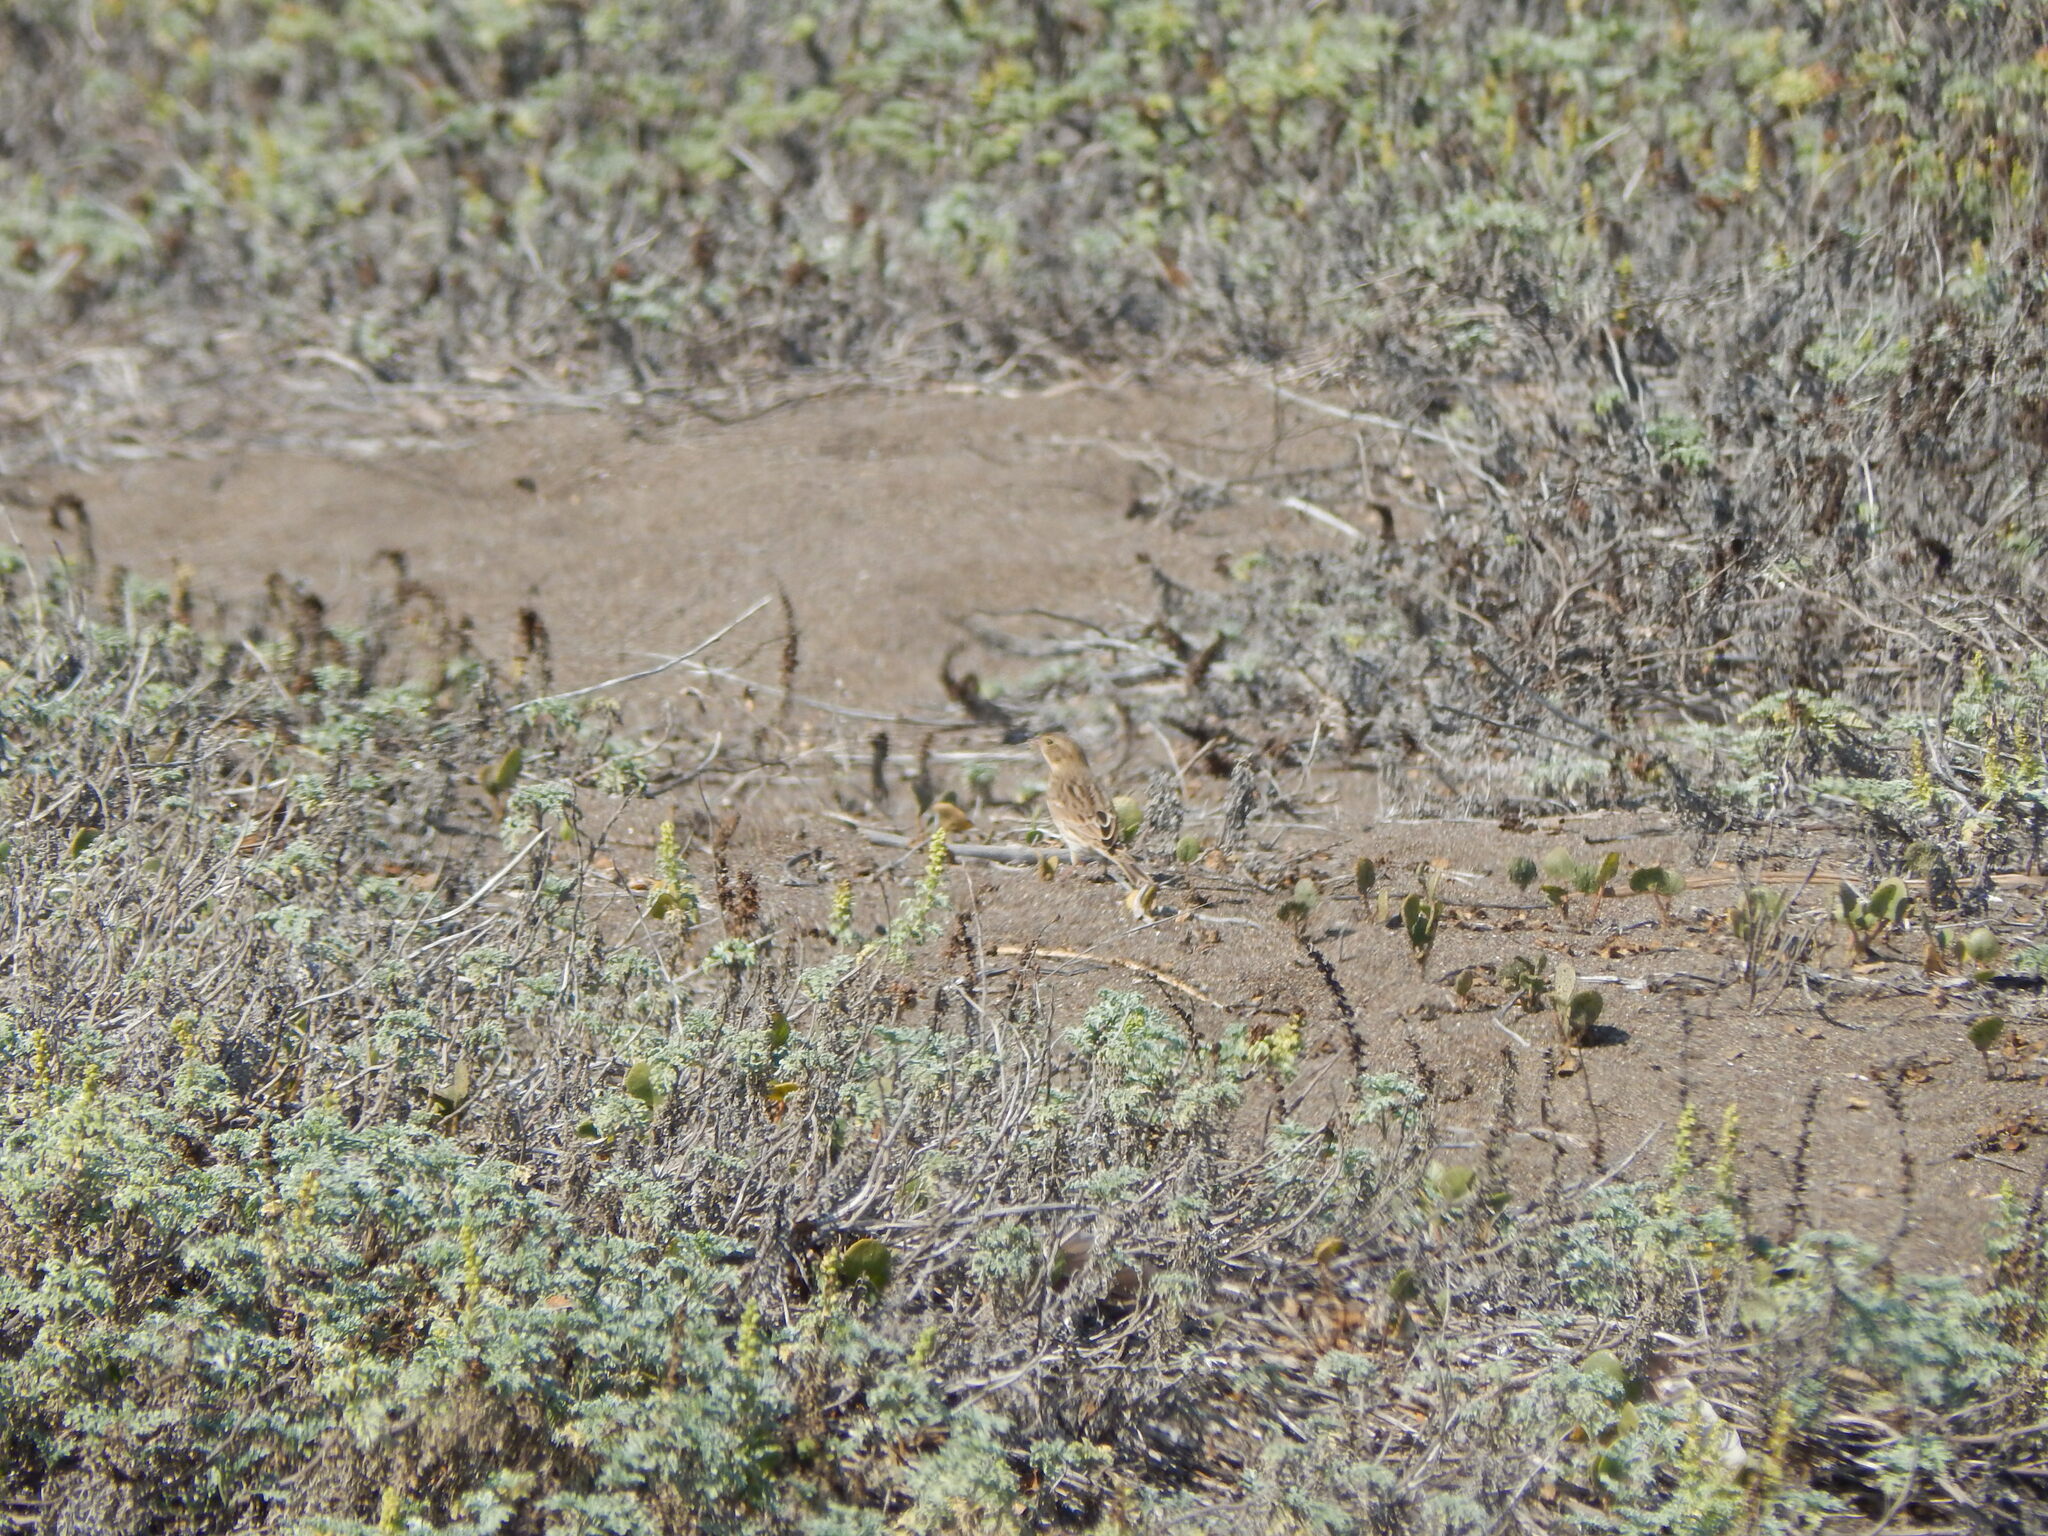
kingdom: Animalia
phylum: Chordata
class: Aves
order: Passeriformes
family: Passerellidae
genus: Passerculus
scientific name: Passerculus sandwichensis
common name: Savannah sparrow
